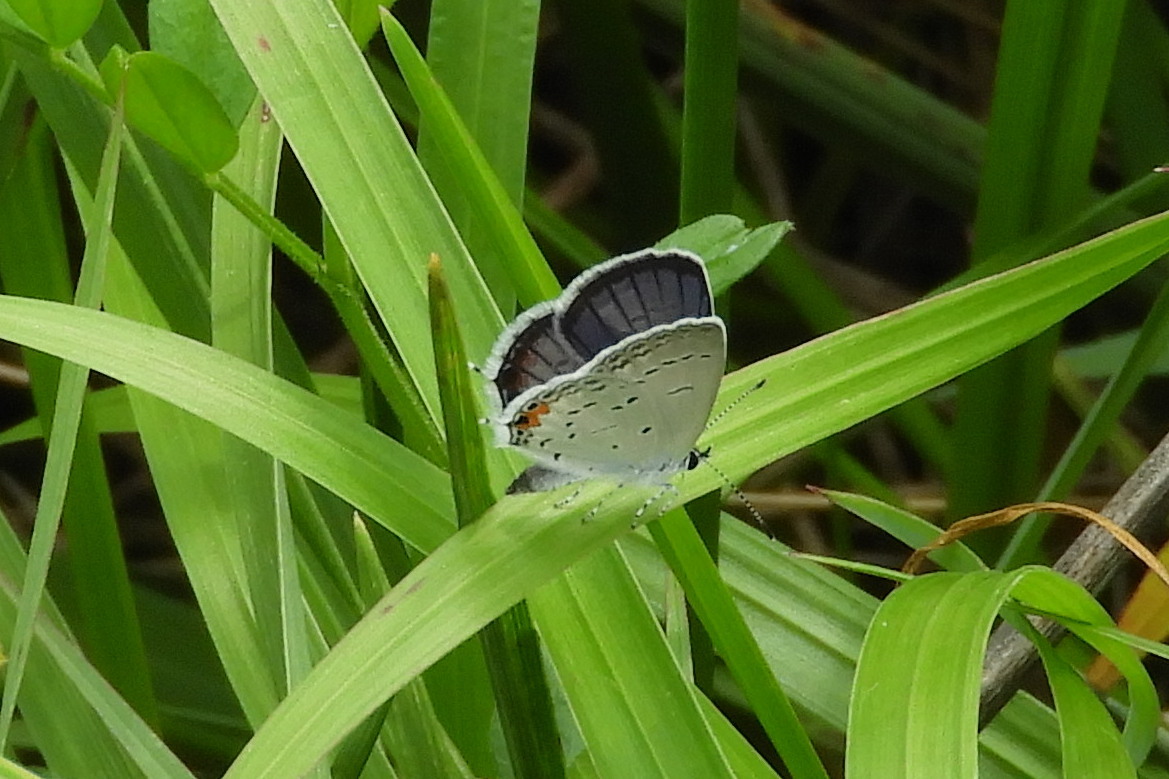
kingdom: Animalia
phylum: Arthropoda
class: Insecta
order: Lepidoptera
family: Lycaenidae
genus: Elkalyce
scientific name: Elkalyce comyntas
